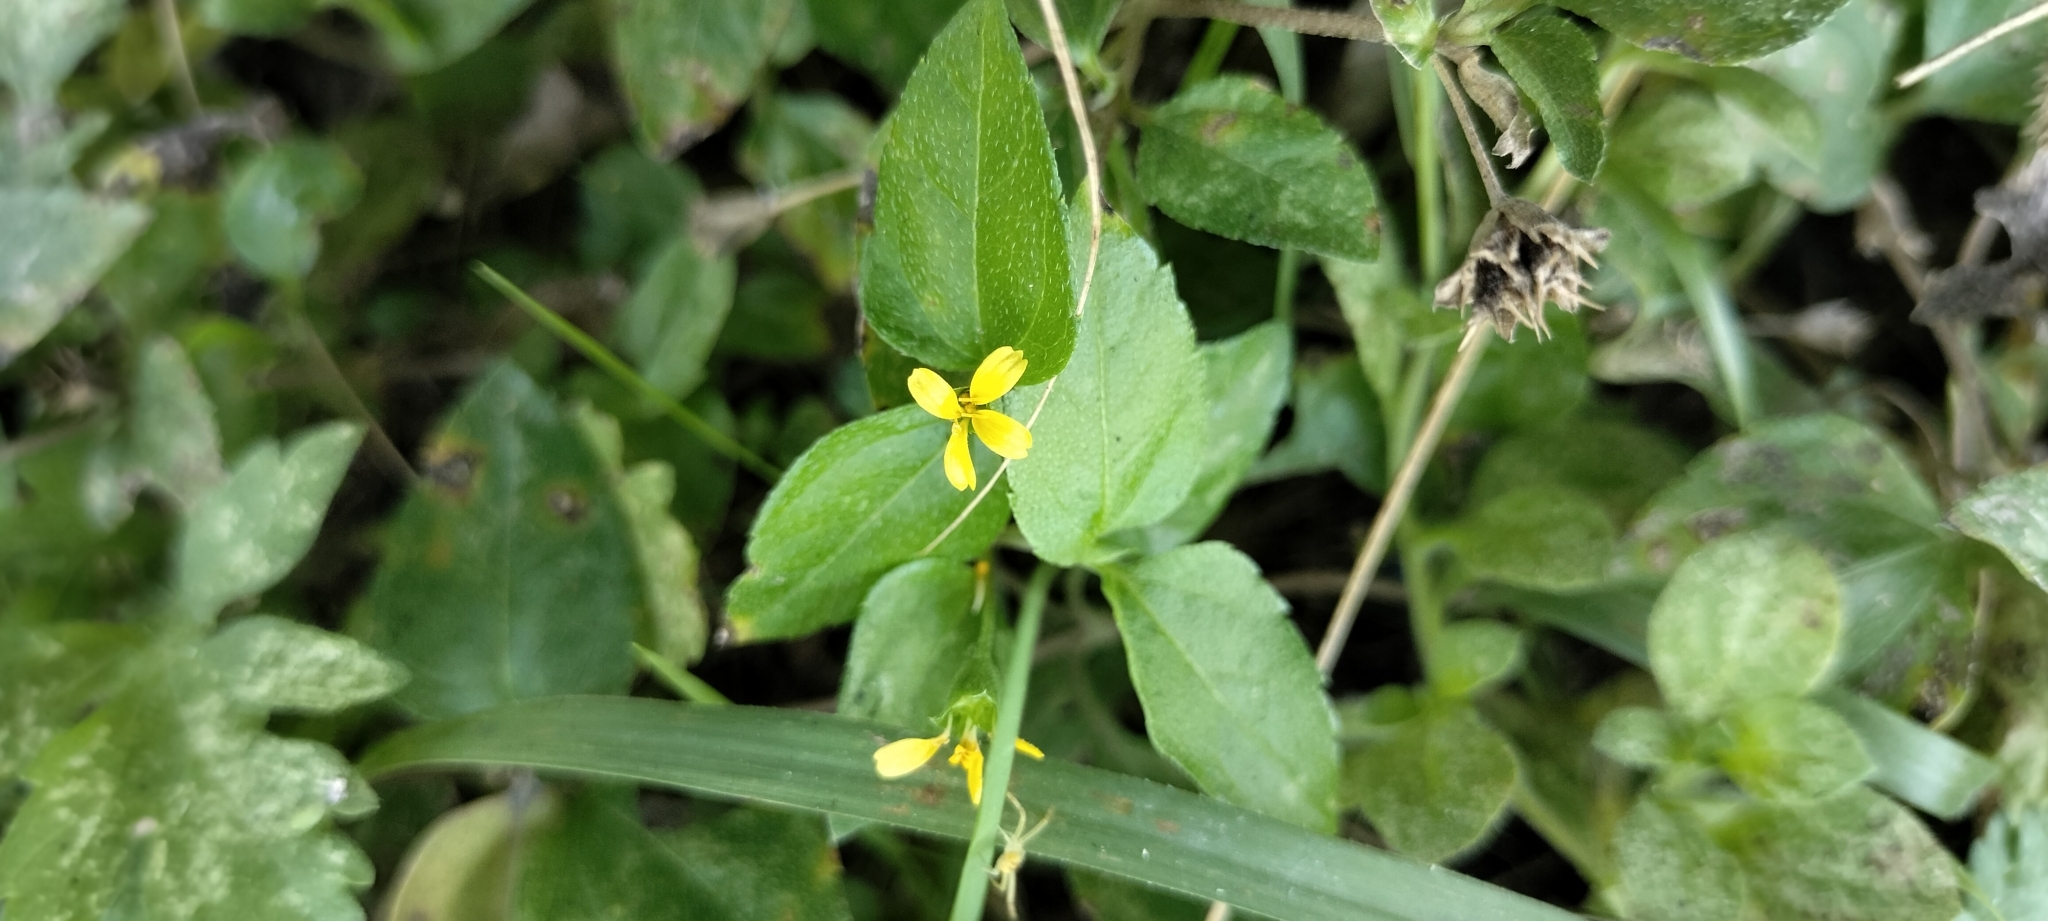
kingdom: Plantae
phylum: Tracheophyta
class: Magnoliopsida
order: Asterales
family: Asteraceae
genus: Calyptocarpus
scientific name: Calyptocarpus vialis
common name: Straggler daisy
